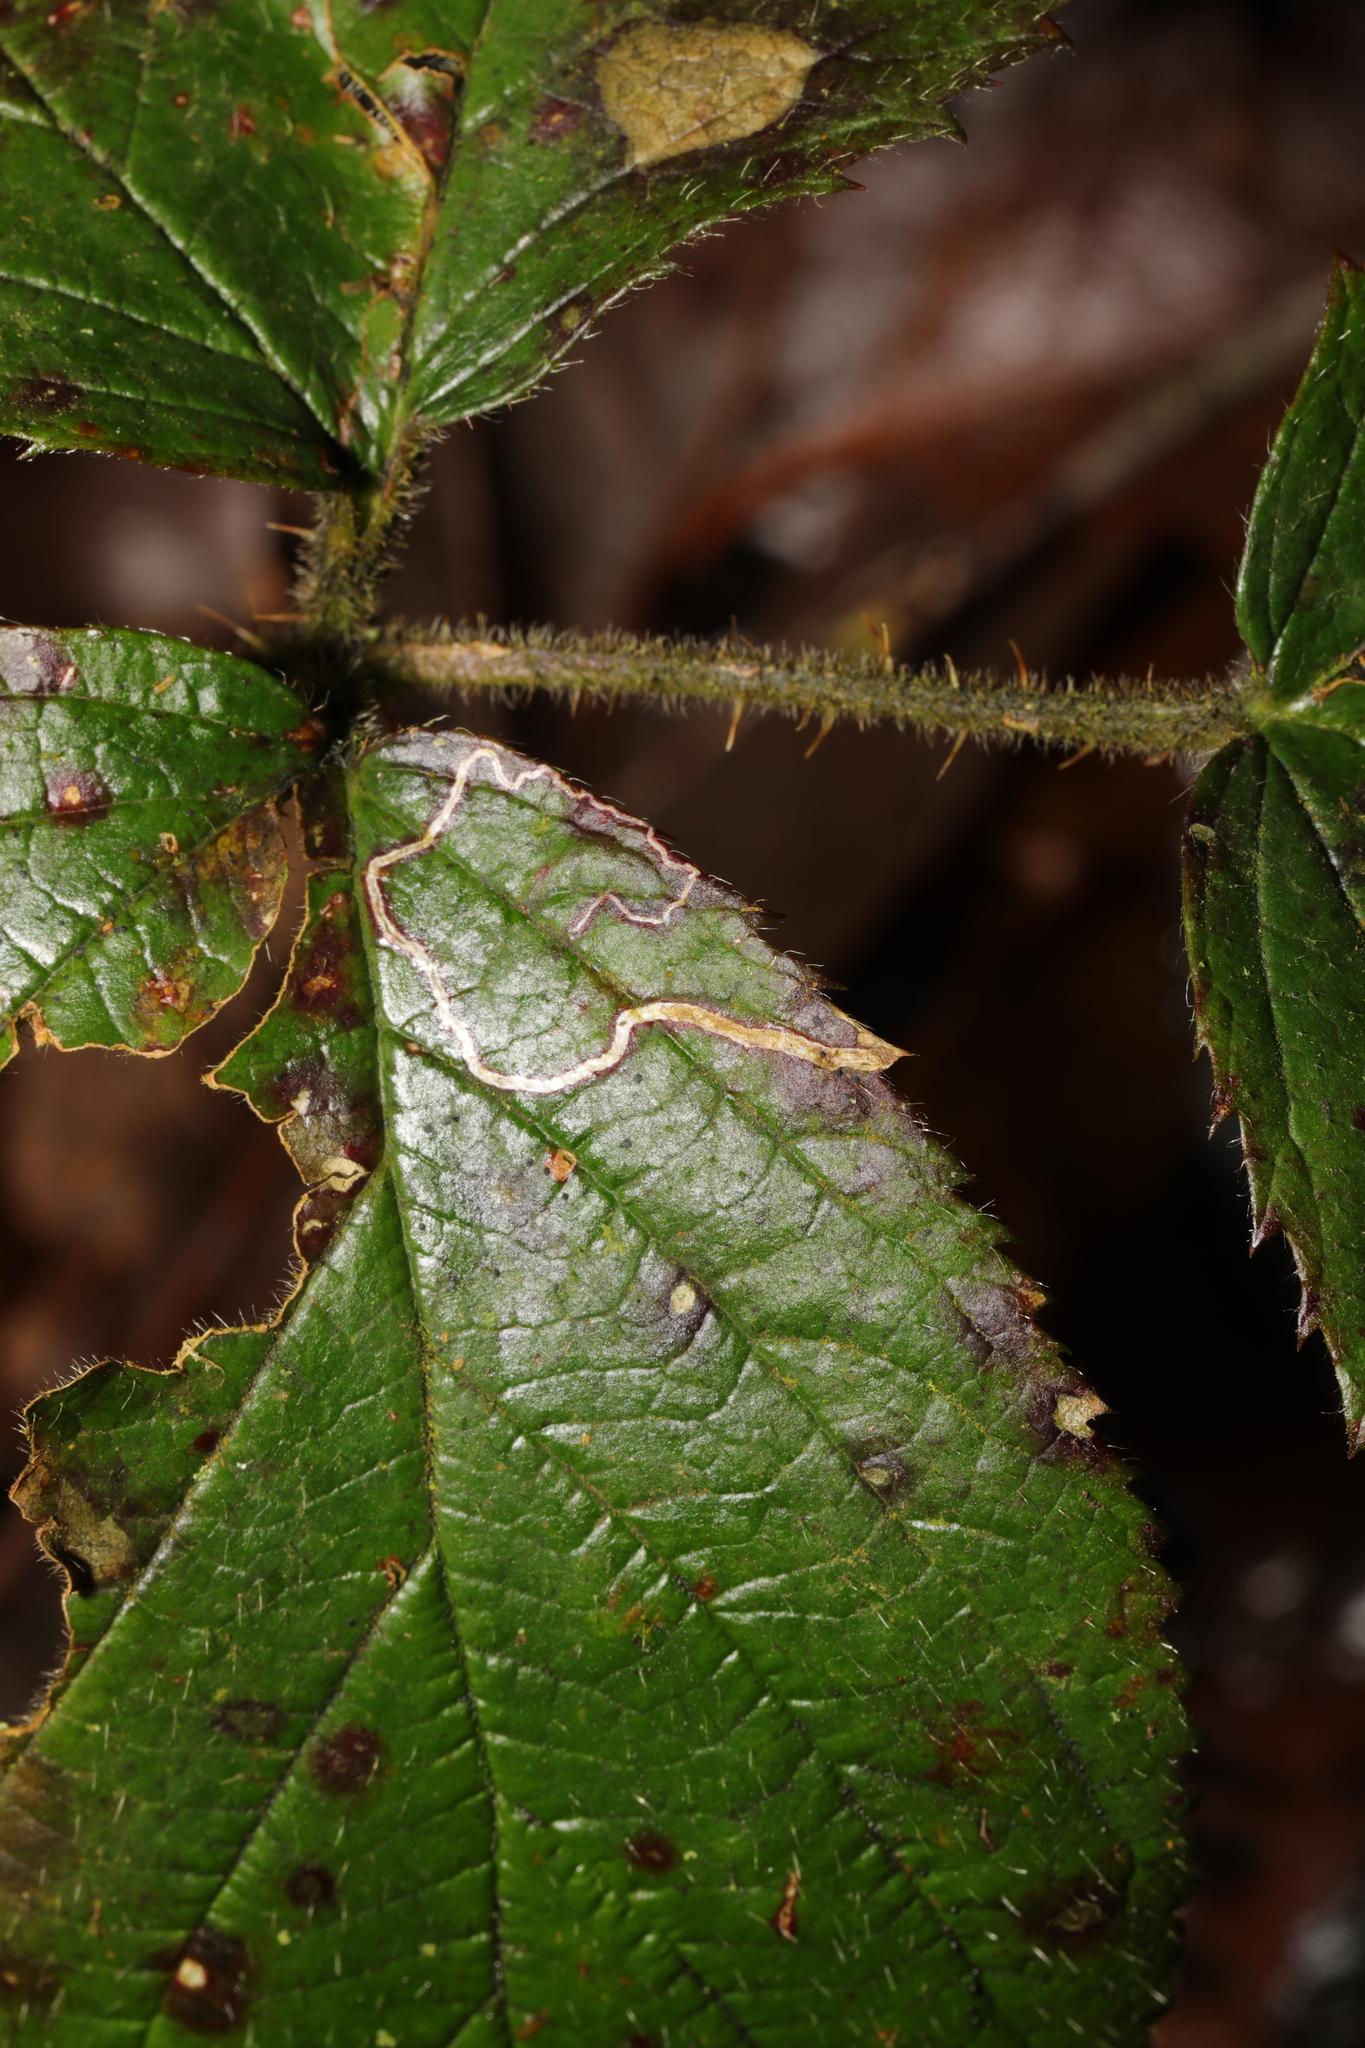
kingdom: Animalia
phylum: Arthropoda
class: Insecta
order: Lepidoptera
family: Nepticulidae
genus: Stigmella
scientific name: Stigmella aurella
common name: Golden pigmy
